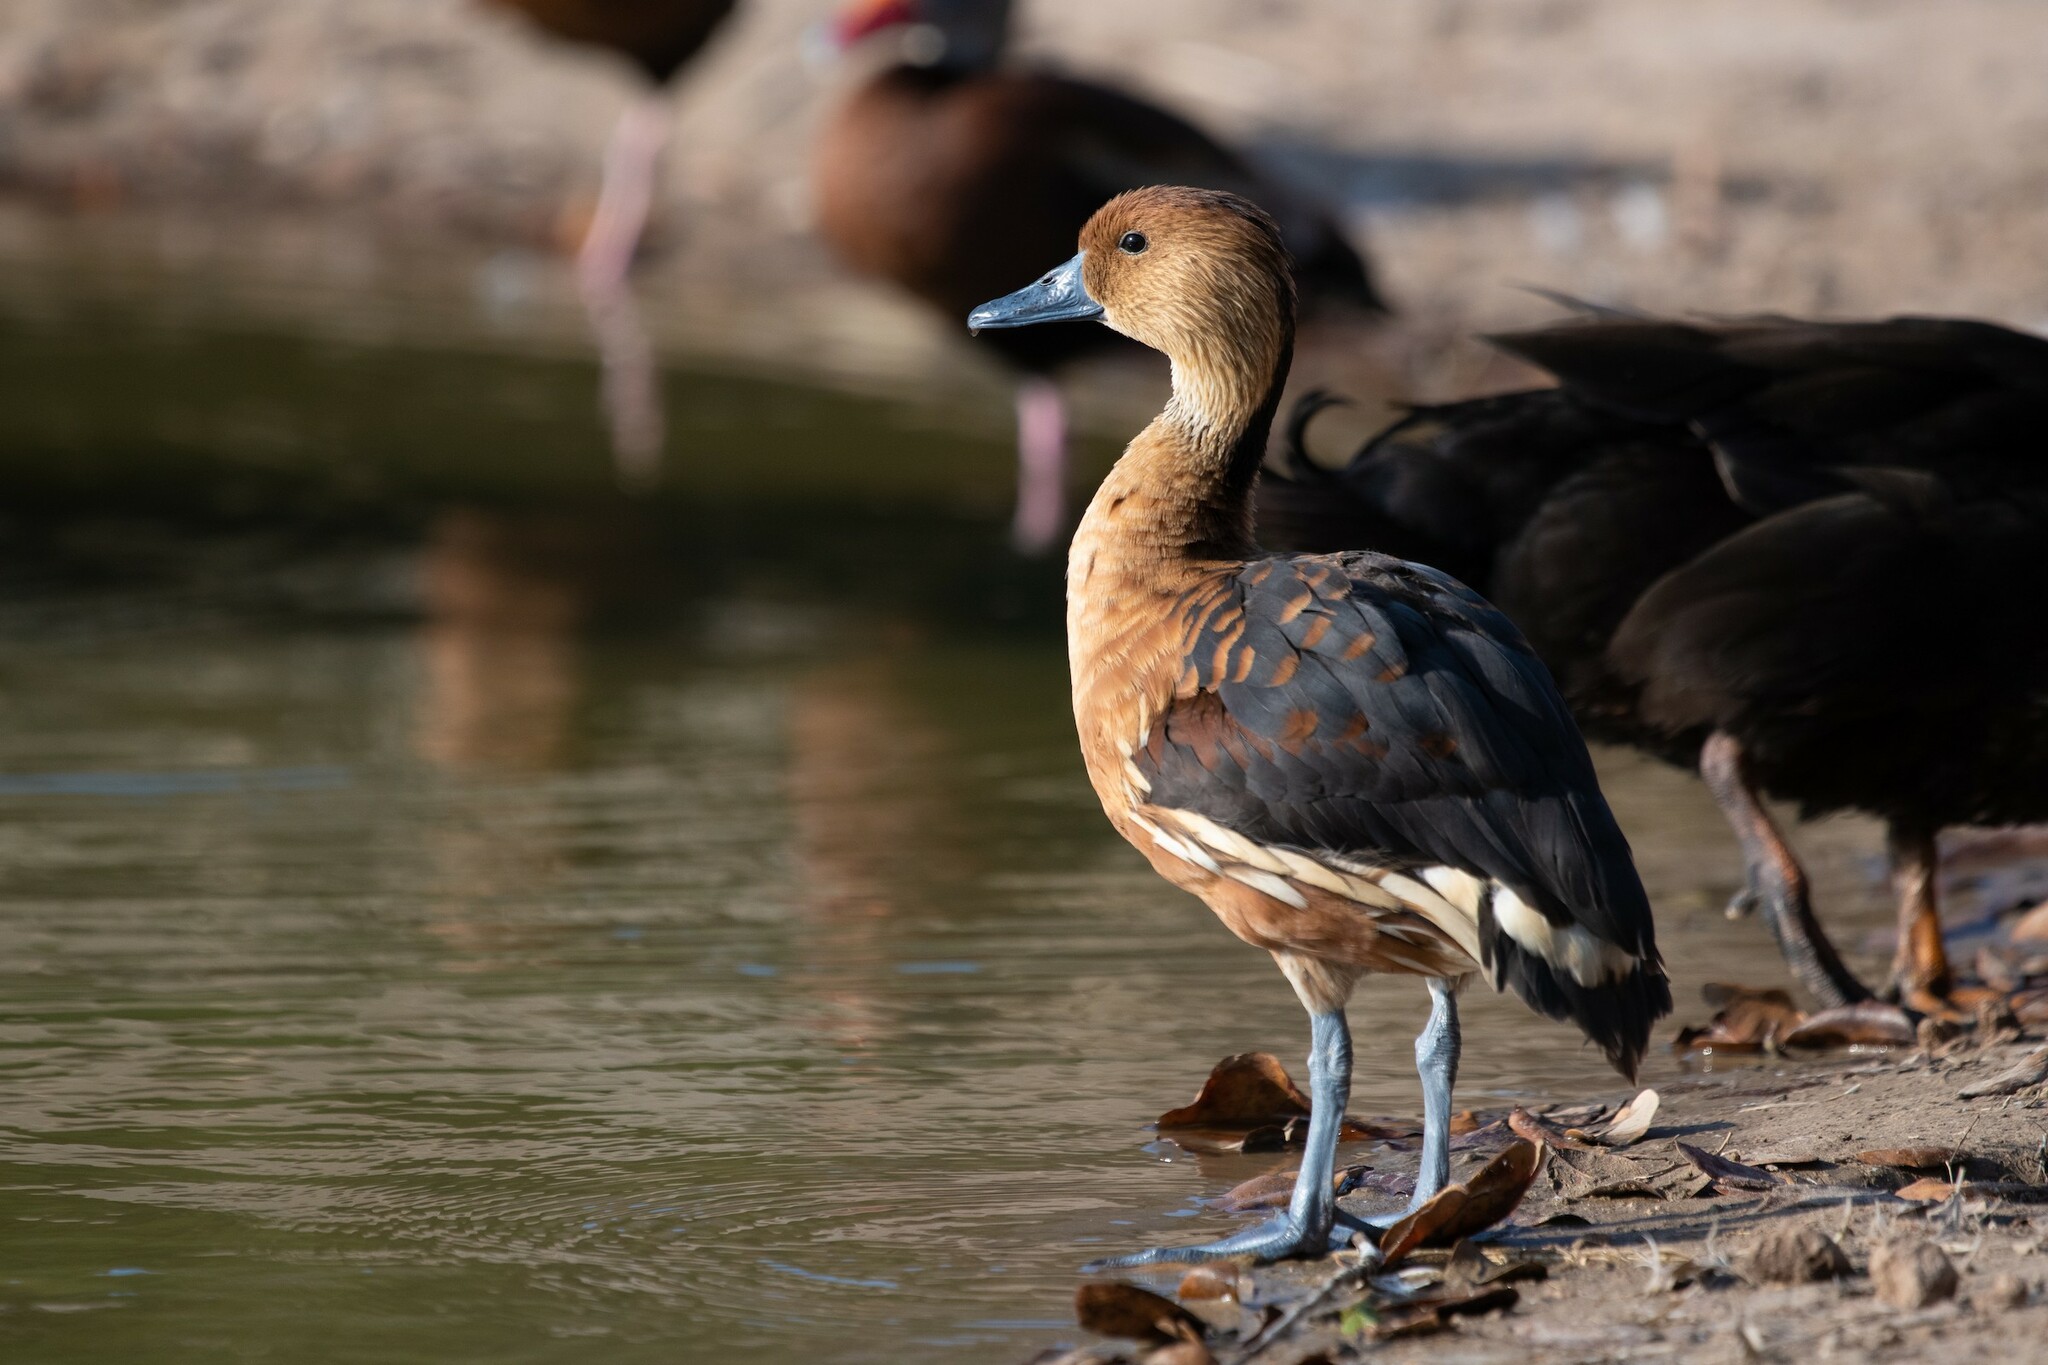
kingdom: Animalia
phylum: Chordata
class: Aves
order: Anseriformes
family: Anatidae
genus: Dendrocygna
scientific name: Dendrocygna bicolor
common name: Fulvous whistling duck
